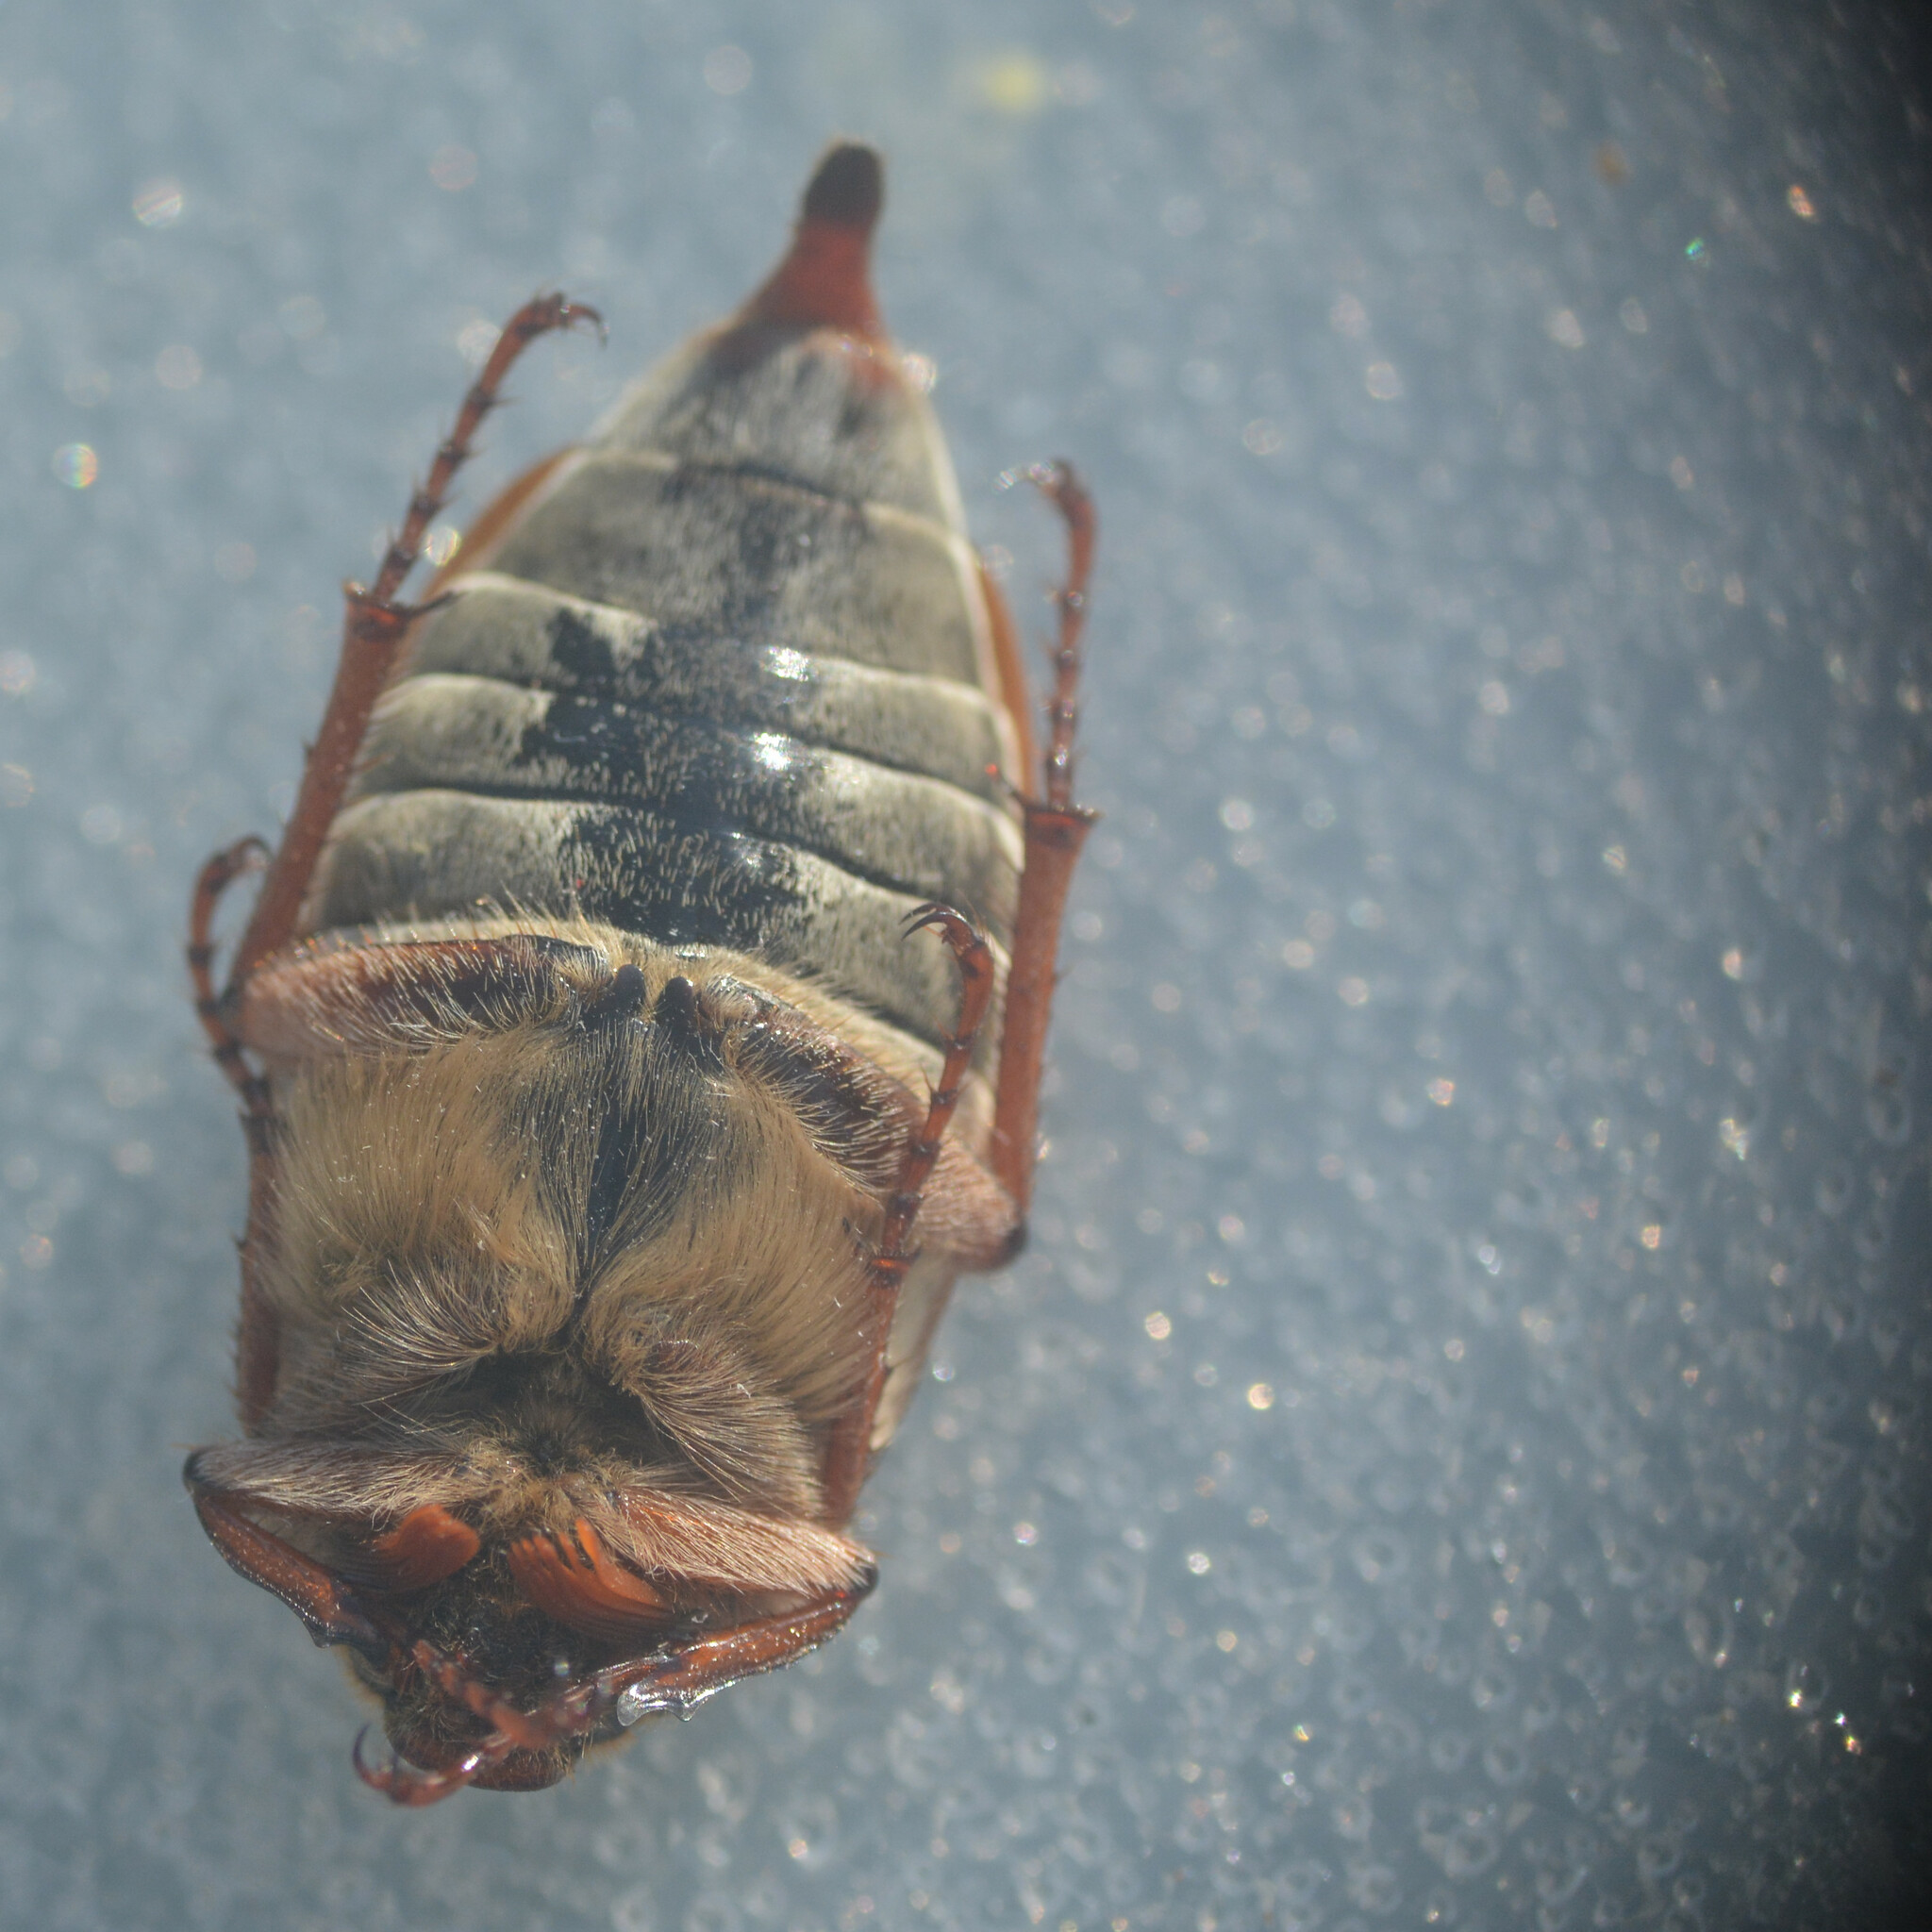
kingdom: Animalia
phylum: Arthropoda
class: Insecta
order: Coleoptera
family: Scarabaeidae
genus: Melolontha
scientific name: Melolontha melolontha
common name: Cockchafer maybeetle
